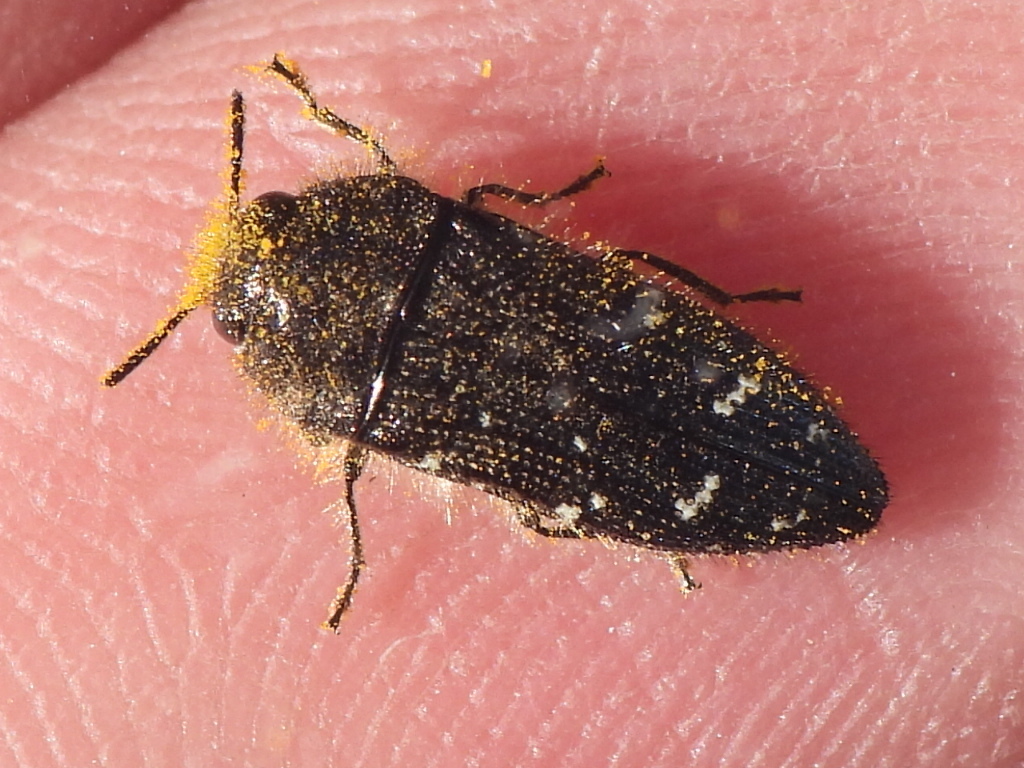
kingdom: Animalia
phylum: Arthropoda
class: Insecta
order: Coleoptera
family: Buprestidae
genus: Acmaeodera
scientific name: Acmaeodera ornatoides
